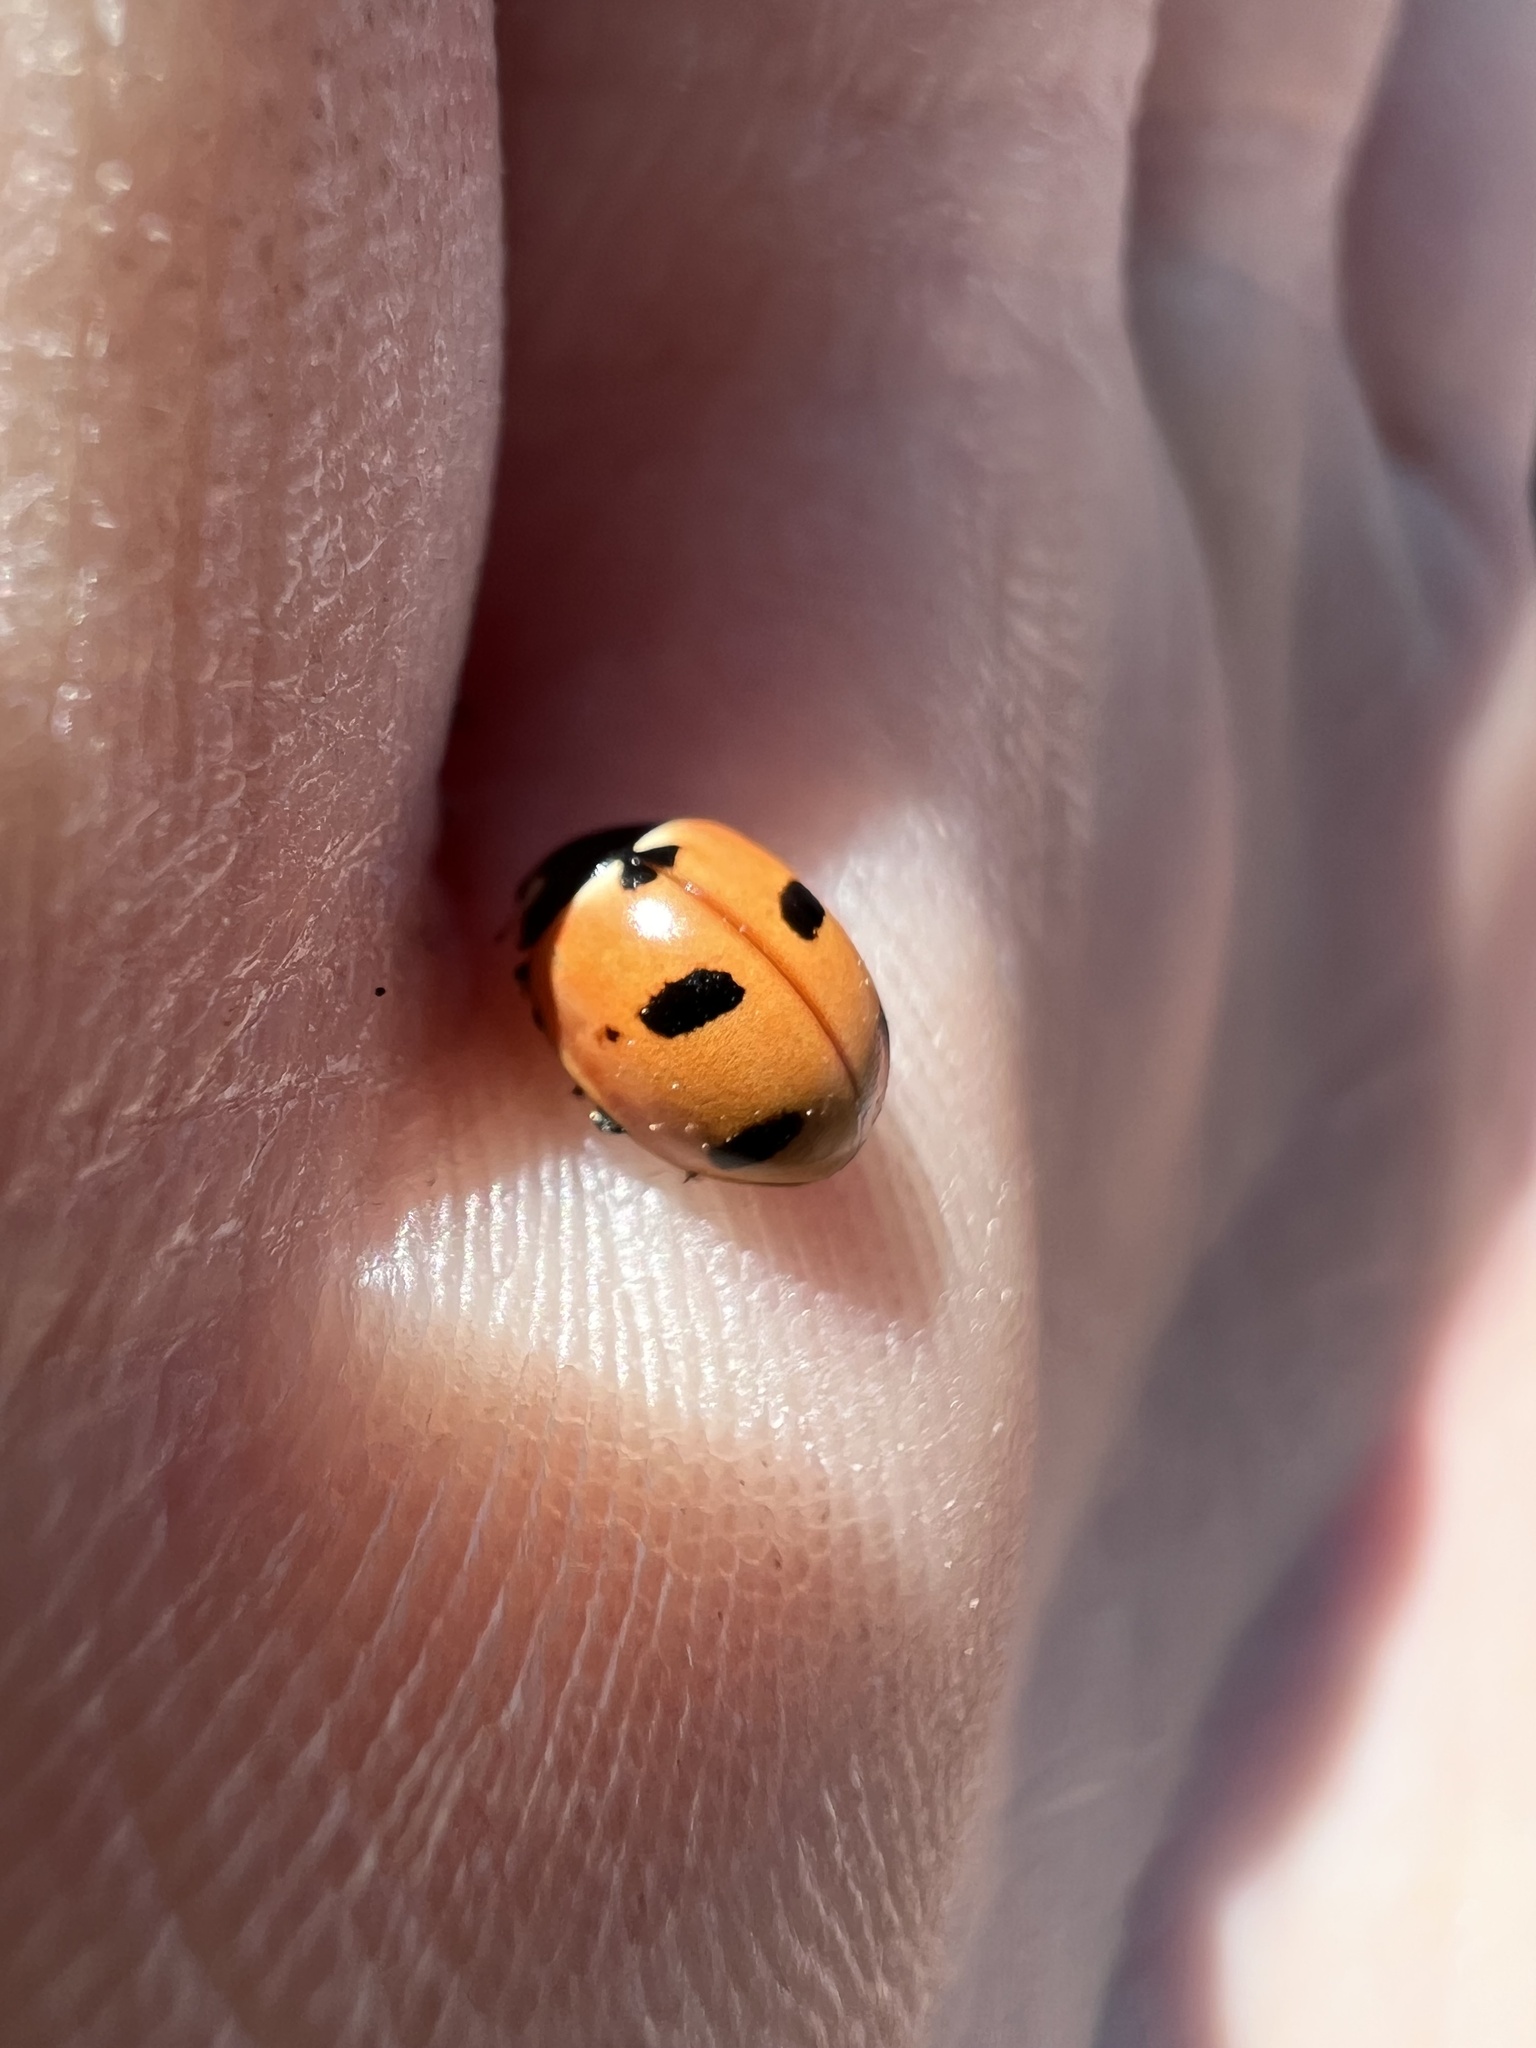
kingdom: Animalia
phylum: Arthropoda
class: Insecta
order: Coleoptera
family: Coccinellidae
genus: Coccinella
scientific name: Coccinella prolongata
